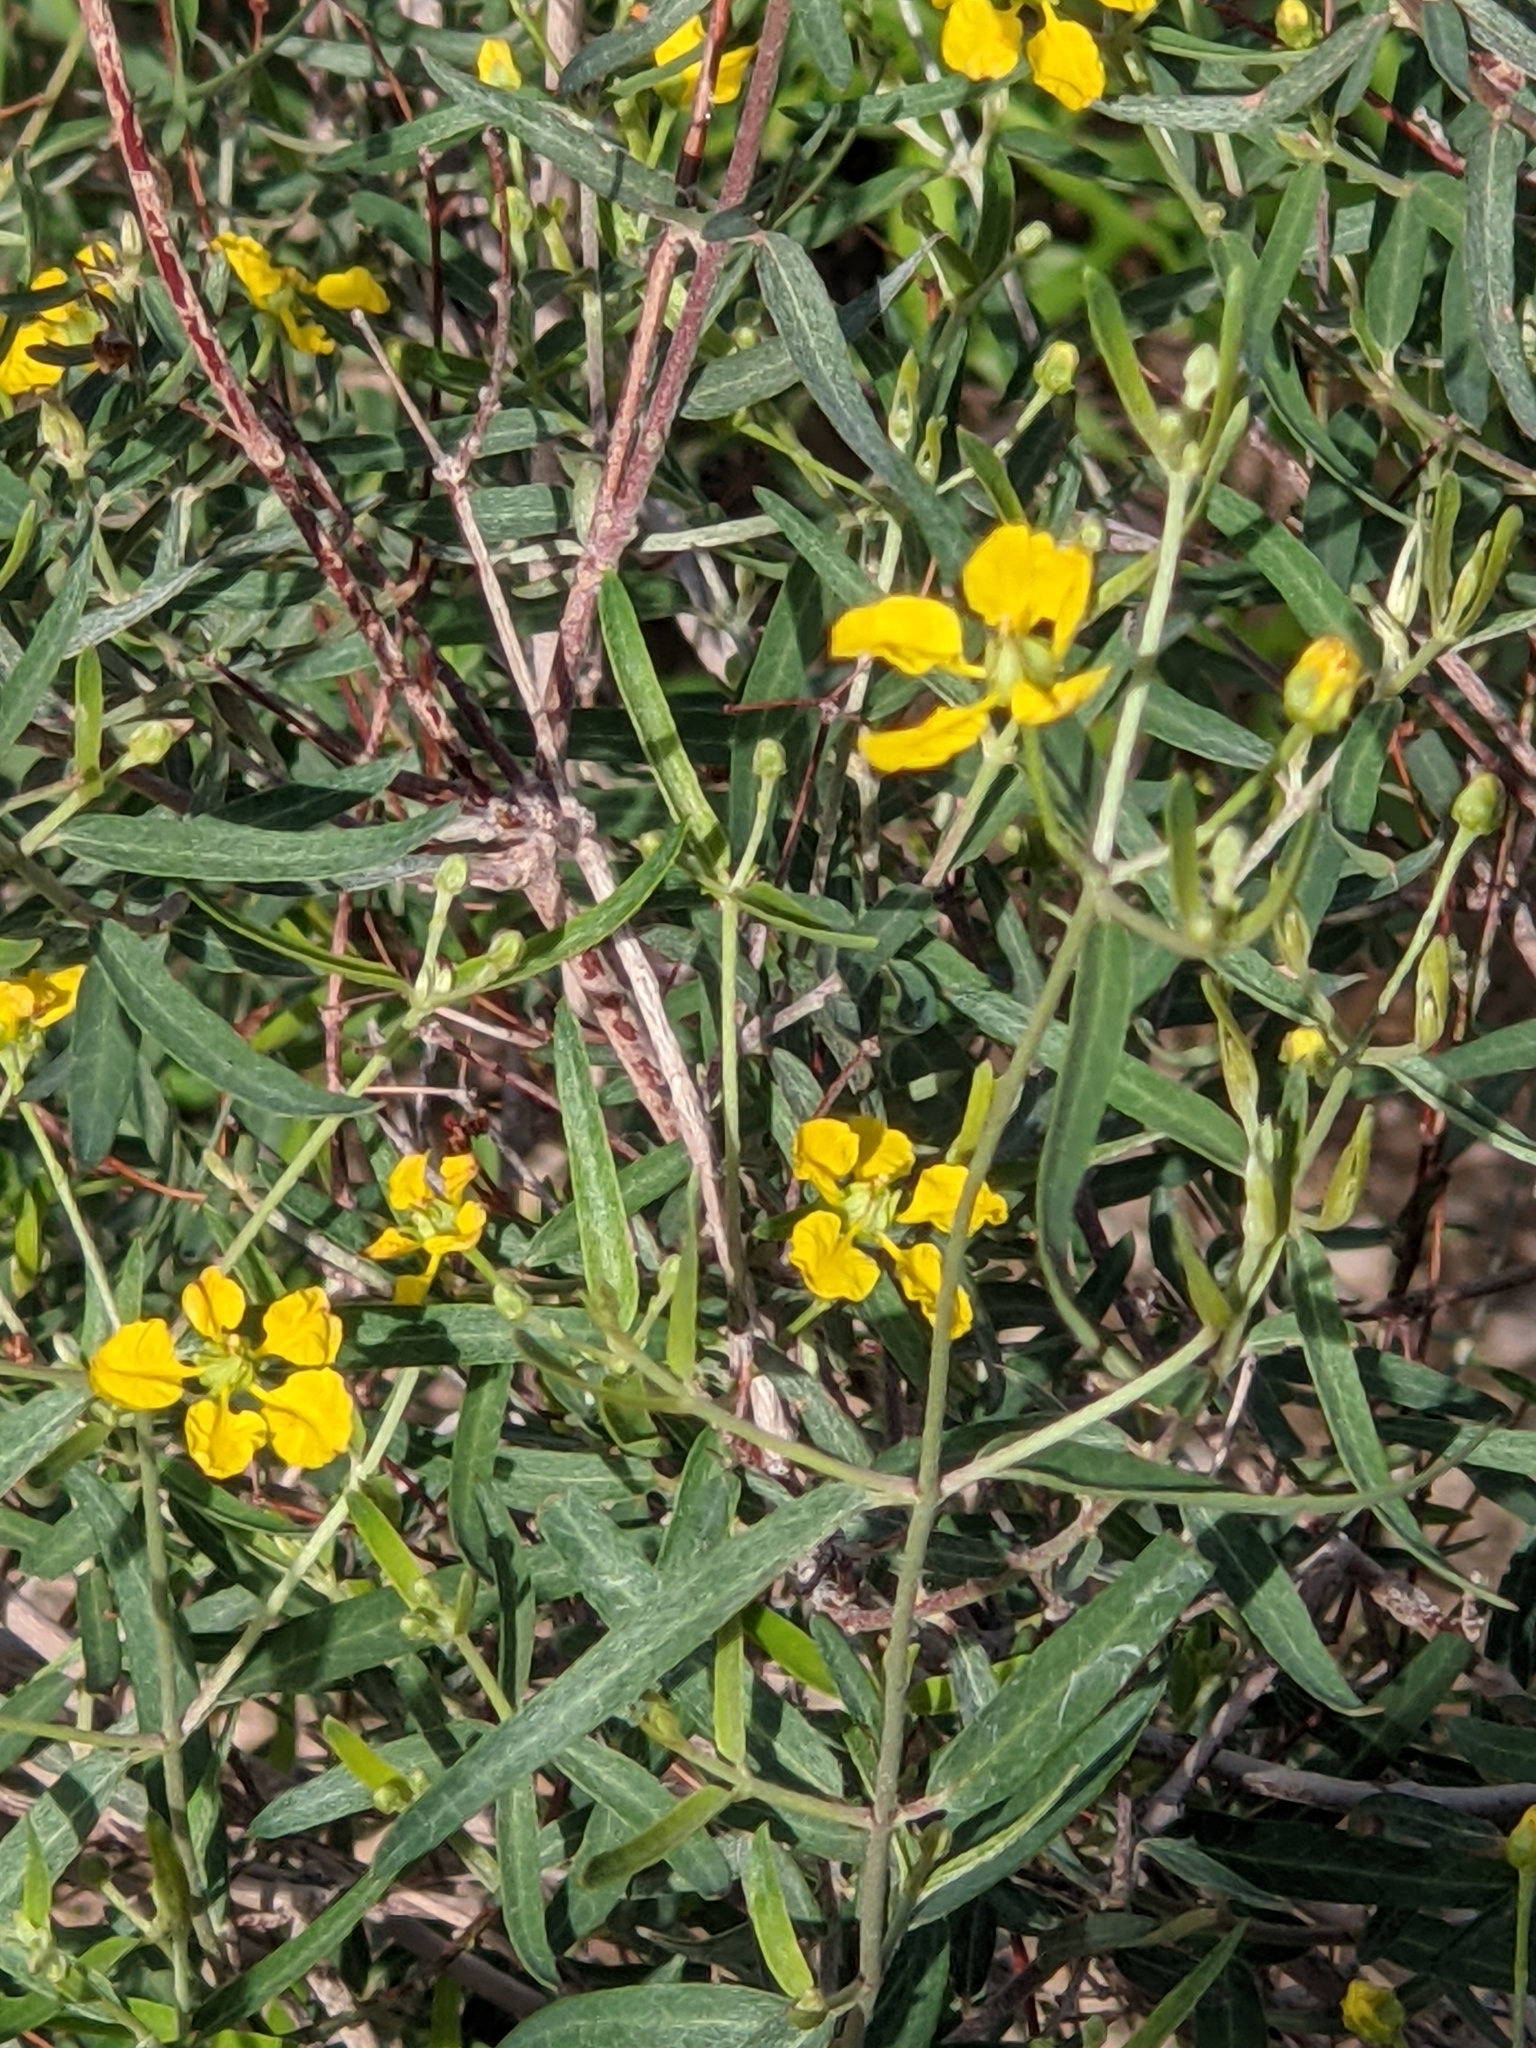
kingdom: Plantae
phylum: Tracheophyta
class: Magnoliopsida
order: Malpighiales
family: Malpighiaceae
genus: Cottsia
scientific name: Cottsia gracilis
